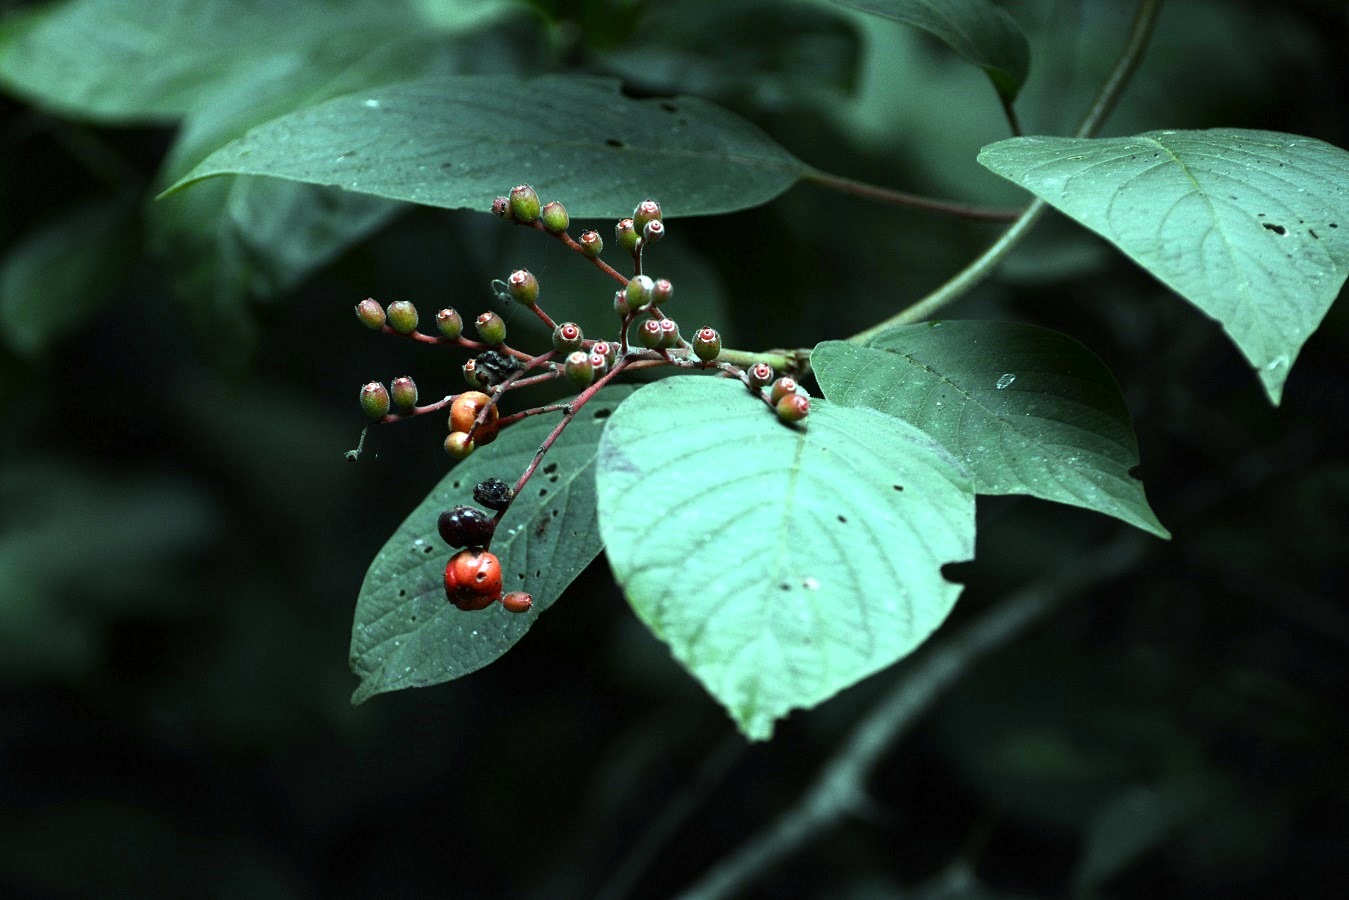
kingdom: Plantae
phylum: Tracheophyta
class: Magnoliopsida
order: Gentianales
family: Rubiaceae
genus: Hamelia
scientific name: Hamelia patens
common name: Redhead
